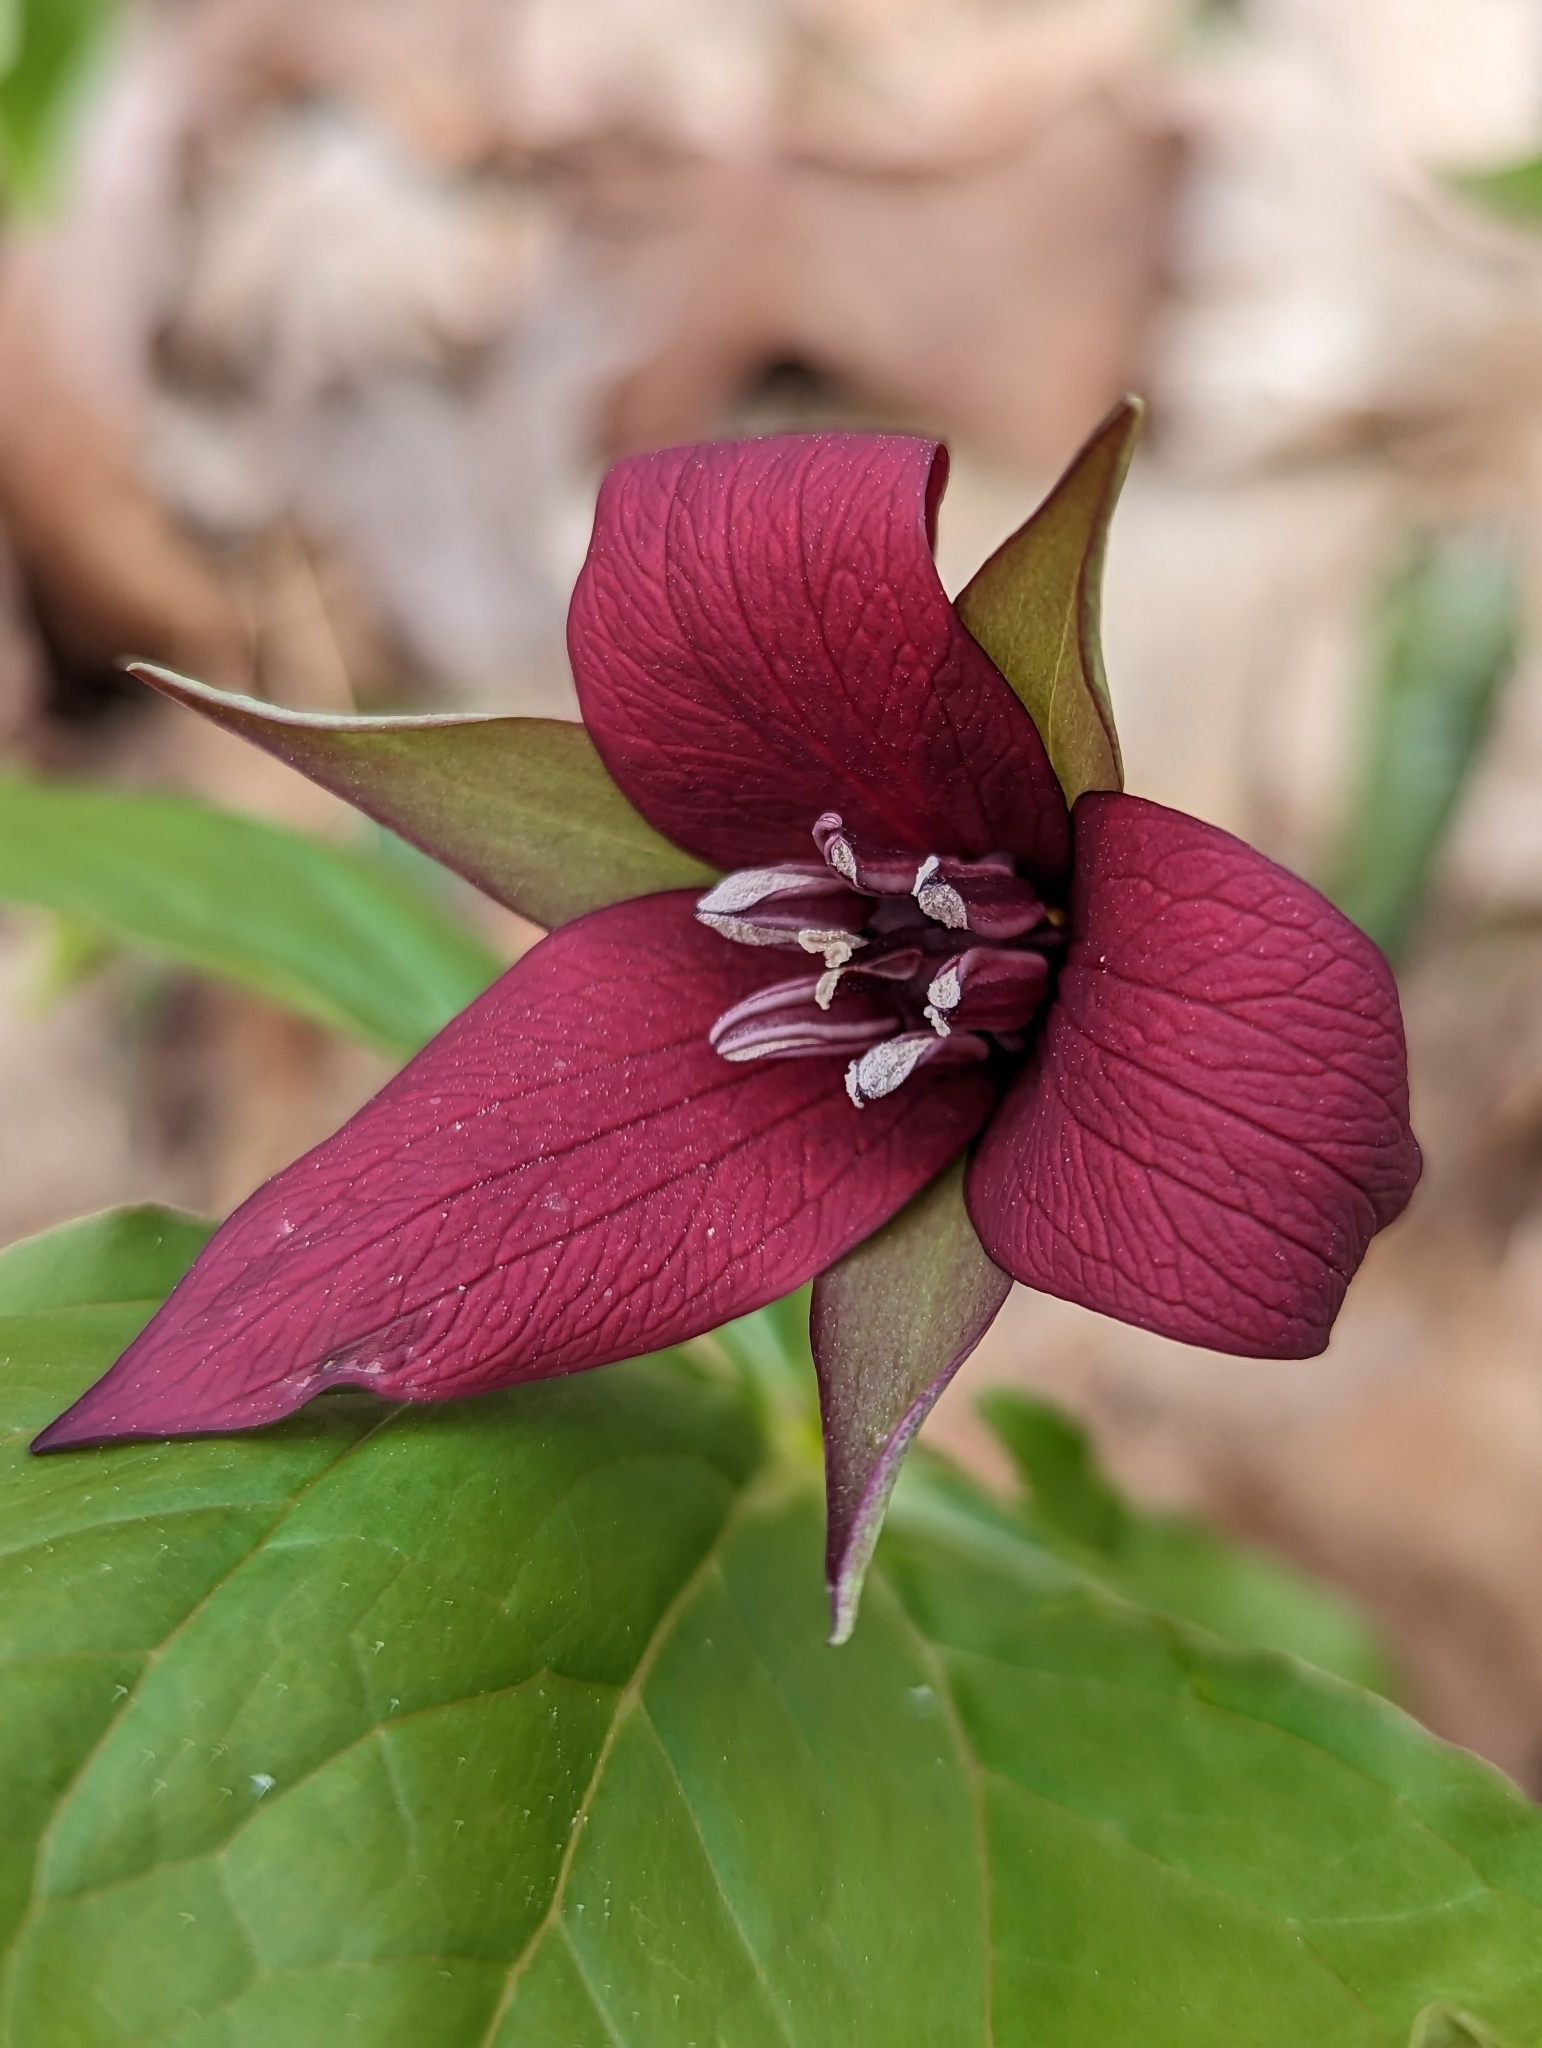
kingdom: Plantae
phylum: Tracheophyta
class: Liliopsida
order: Liliales
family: Melanthiaceae
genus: Trillium
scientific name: Trillium erectum
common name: Purple trillium
